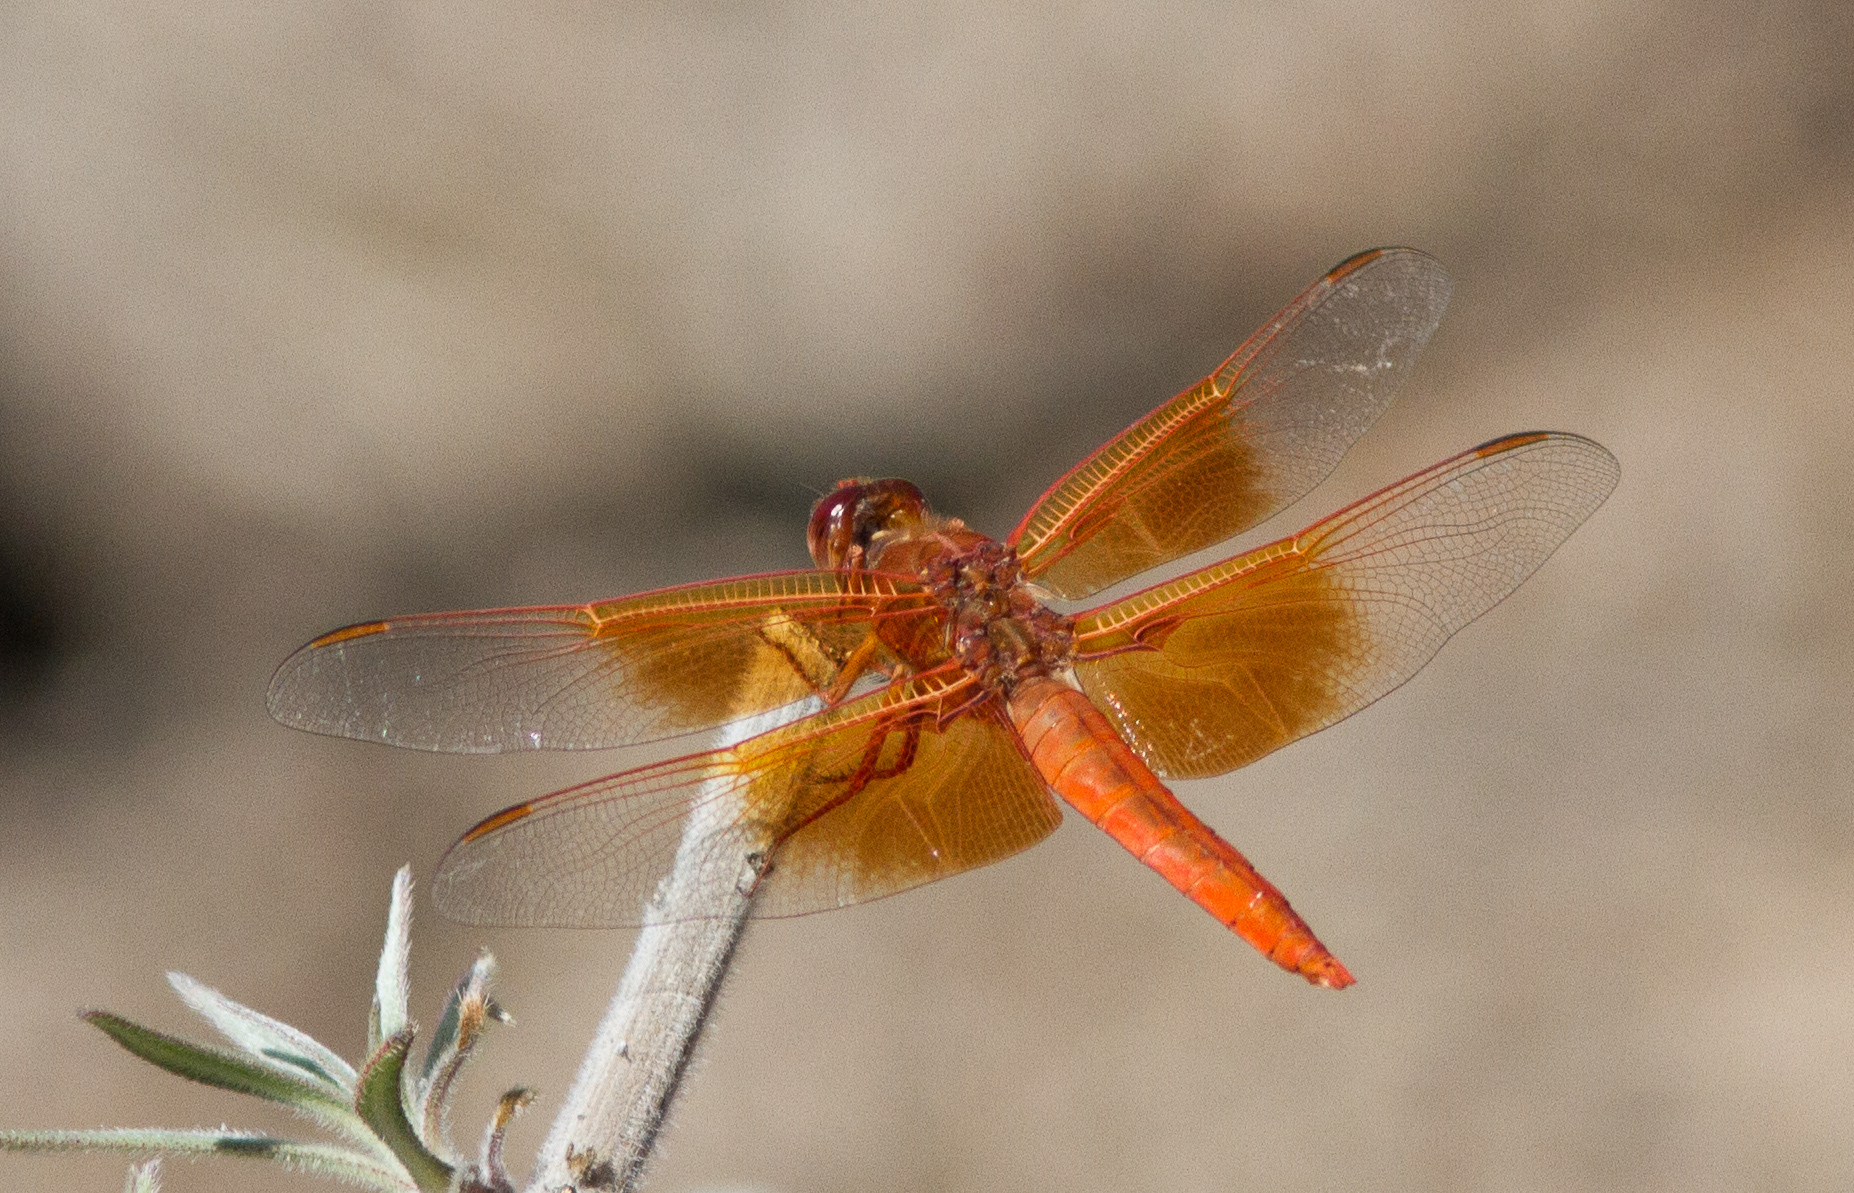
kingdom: Animalia
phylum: Arthropoda
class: Insecta
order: Odonata
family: Libellulidae
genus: Libellula
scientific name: Libellula saturata
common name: Flame skimmer
